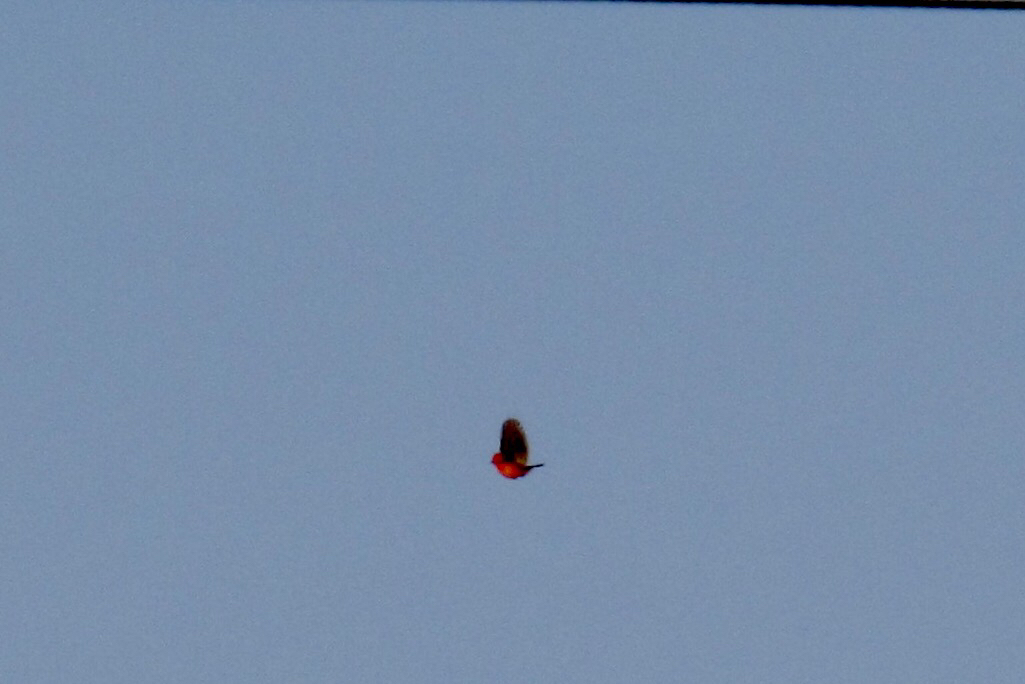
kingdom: Animalia
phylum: Chordata
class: Aves
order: Passeriformes
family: Tyrannidae
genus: Pyrocephalus
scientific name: Pyrocephalus rubinus
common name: Vermilion flycatcher
